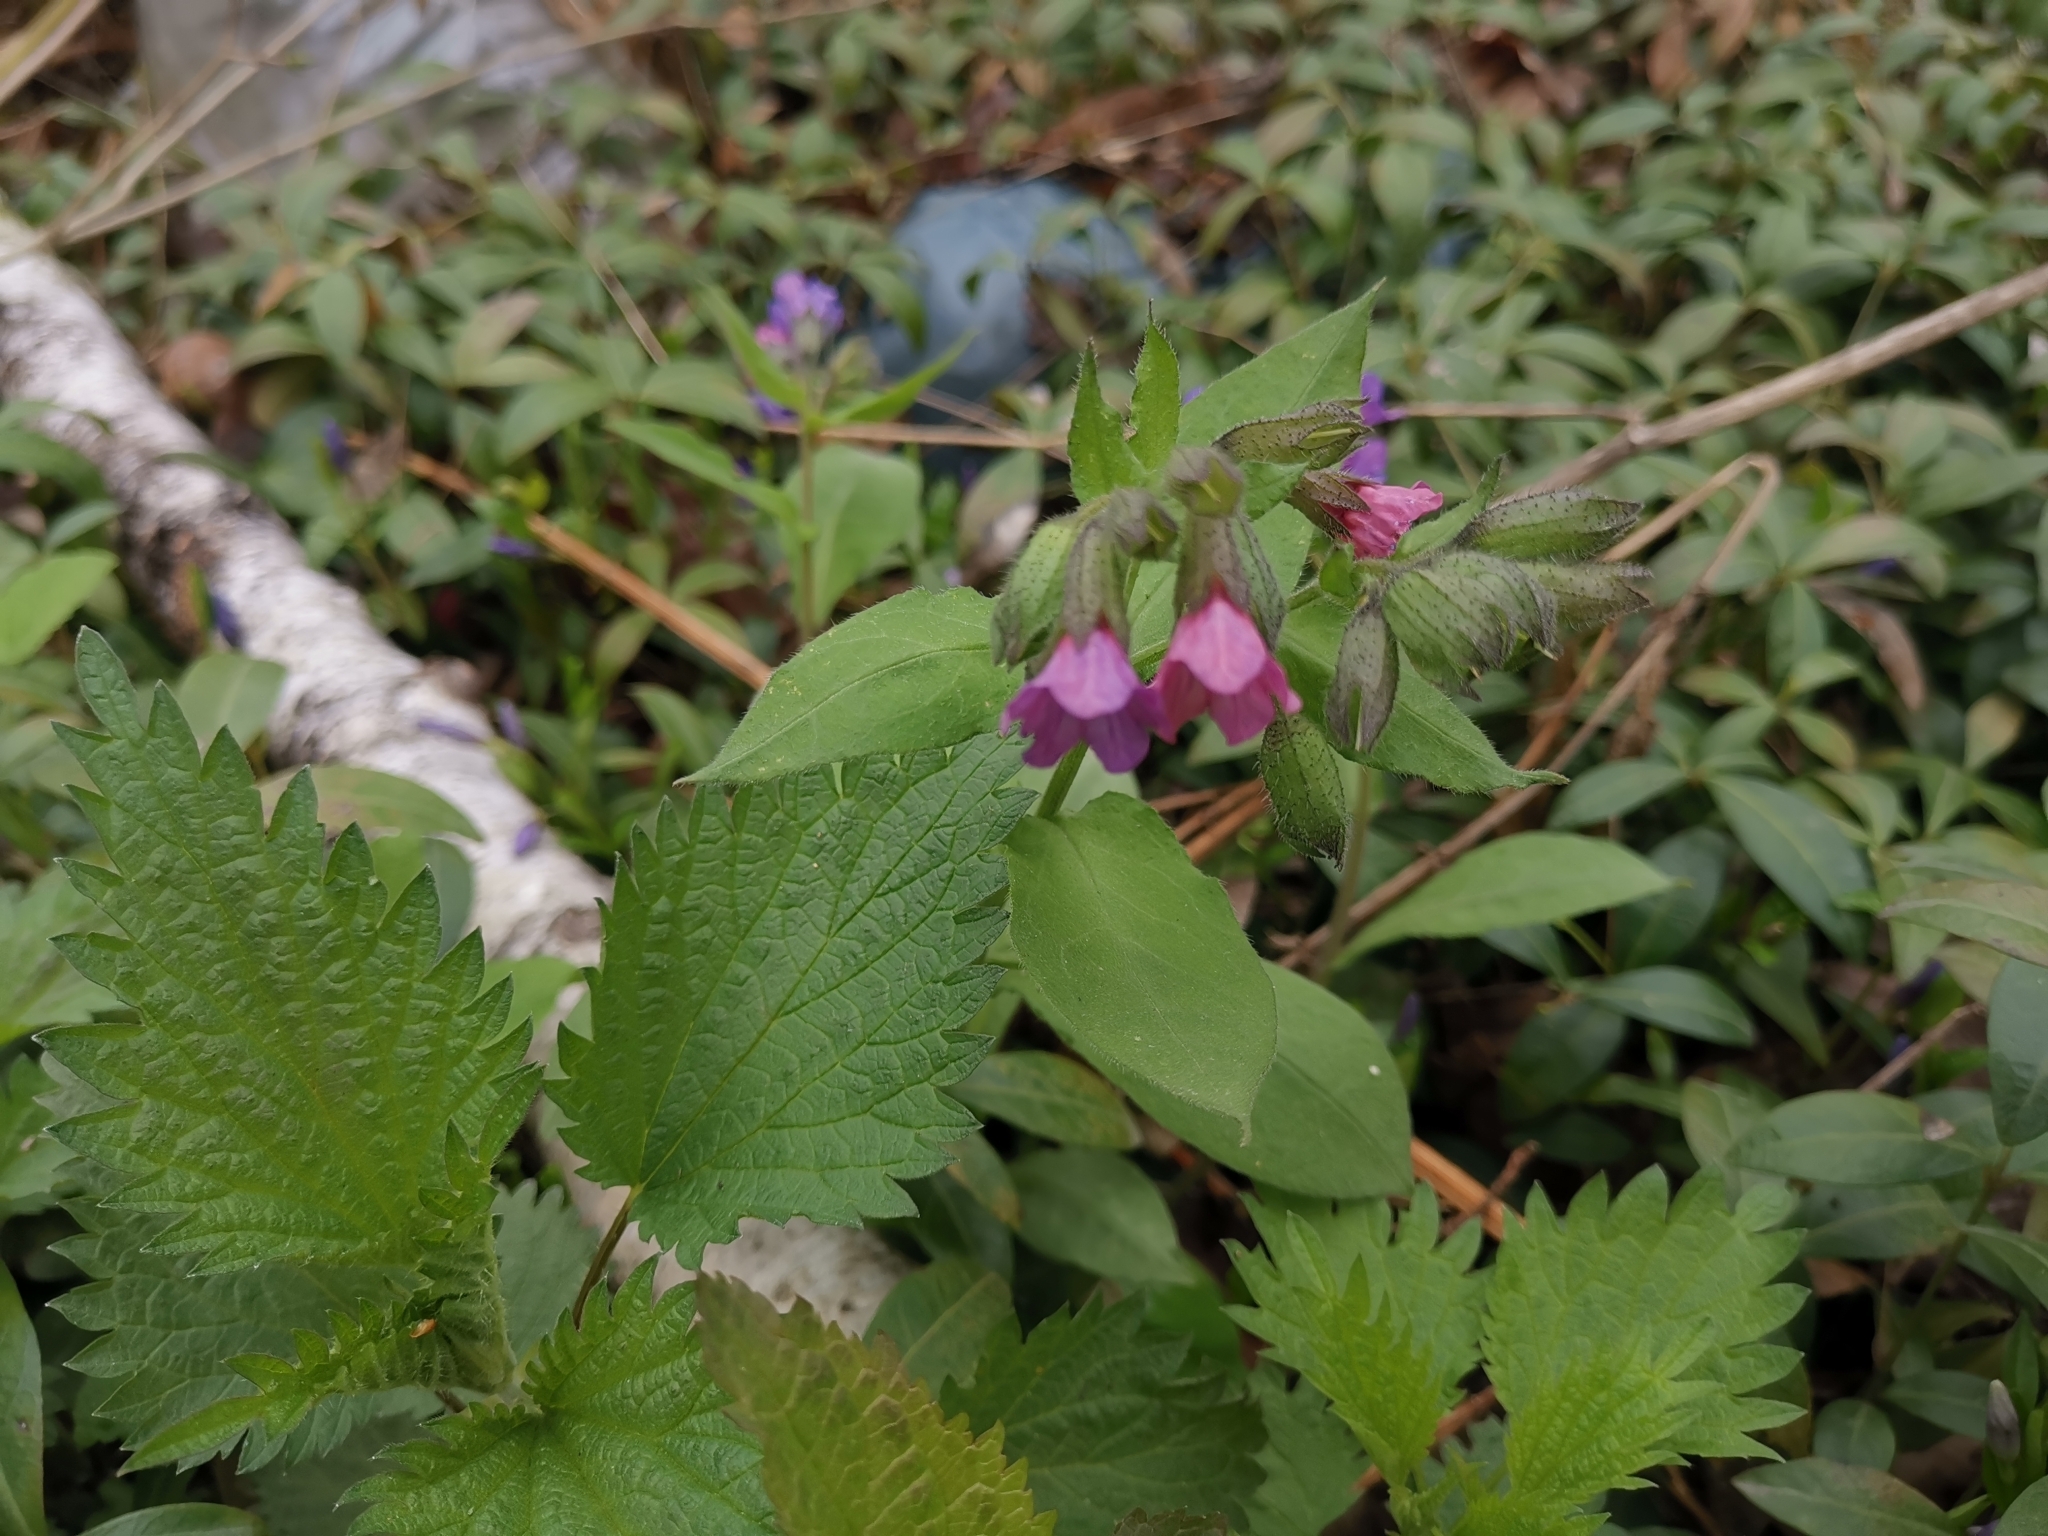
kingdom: Plantae
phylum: Tracheophyta
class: Magnoliopsida
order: Boraginales
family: Boraginaceae
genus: Pulmonaria
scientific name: Pulmonaria obscura
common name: Suffolk lungwort
